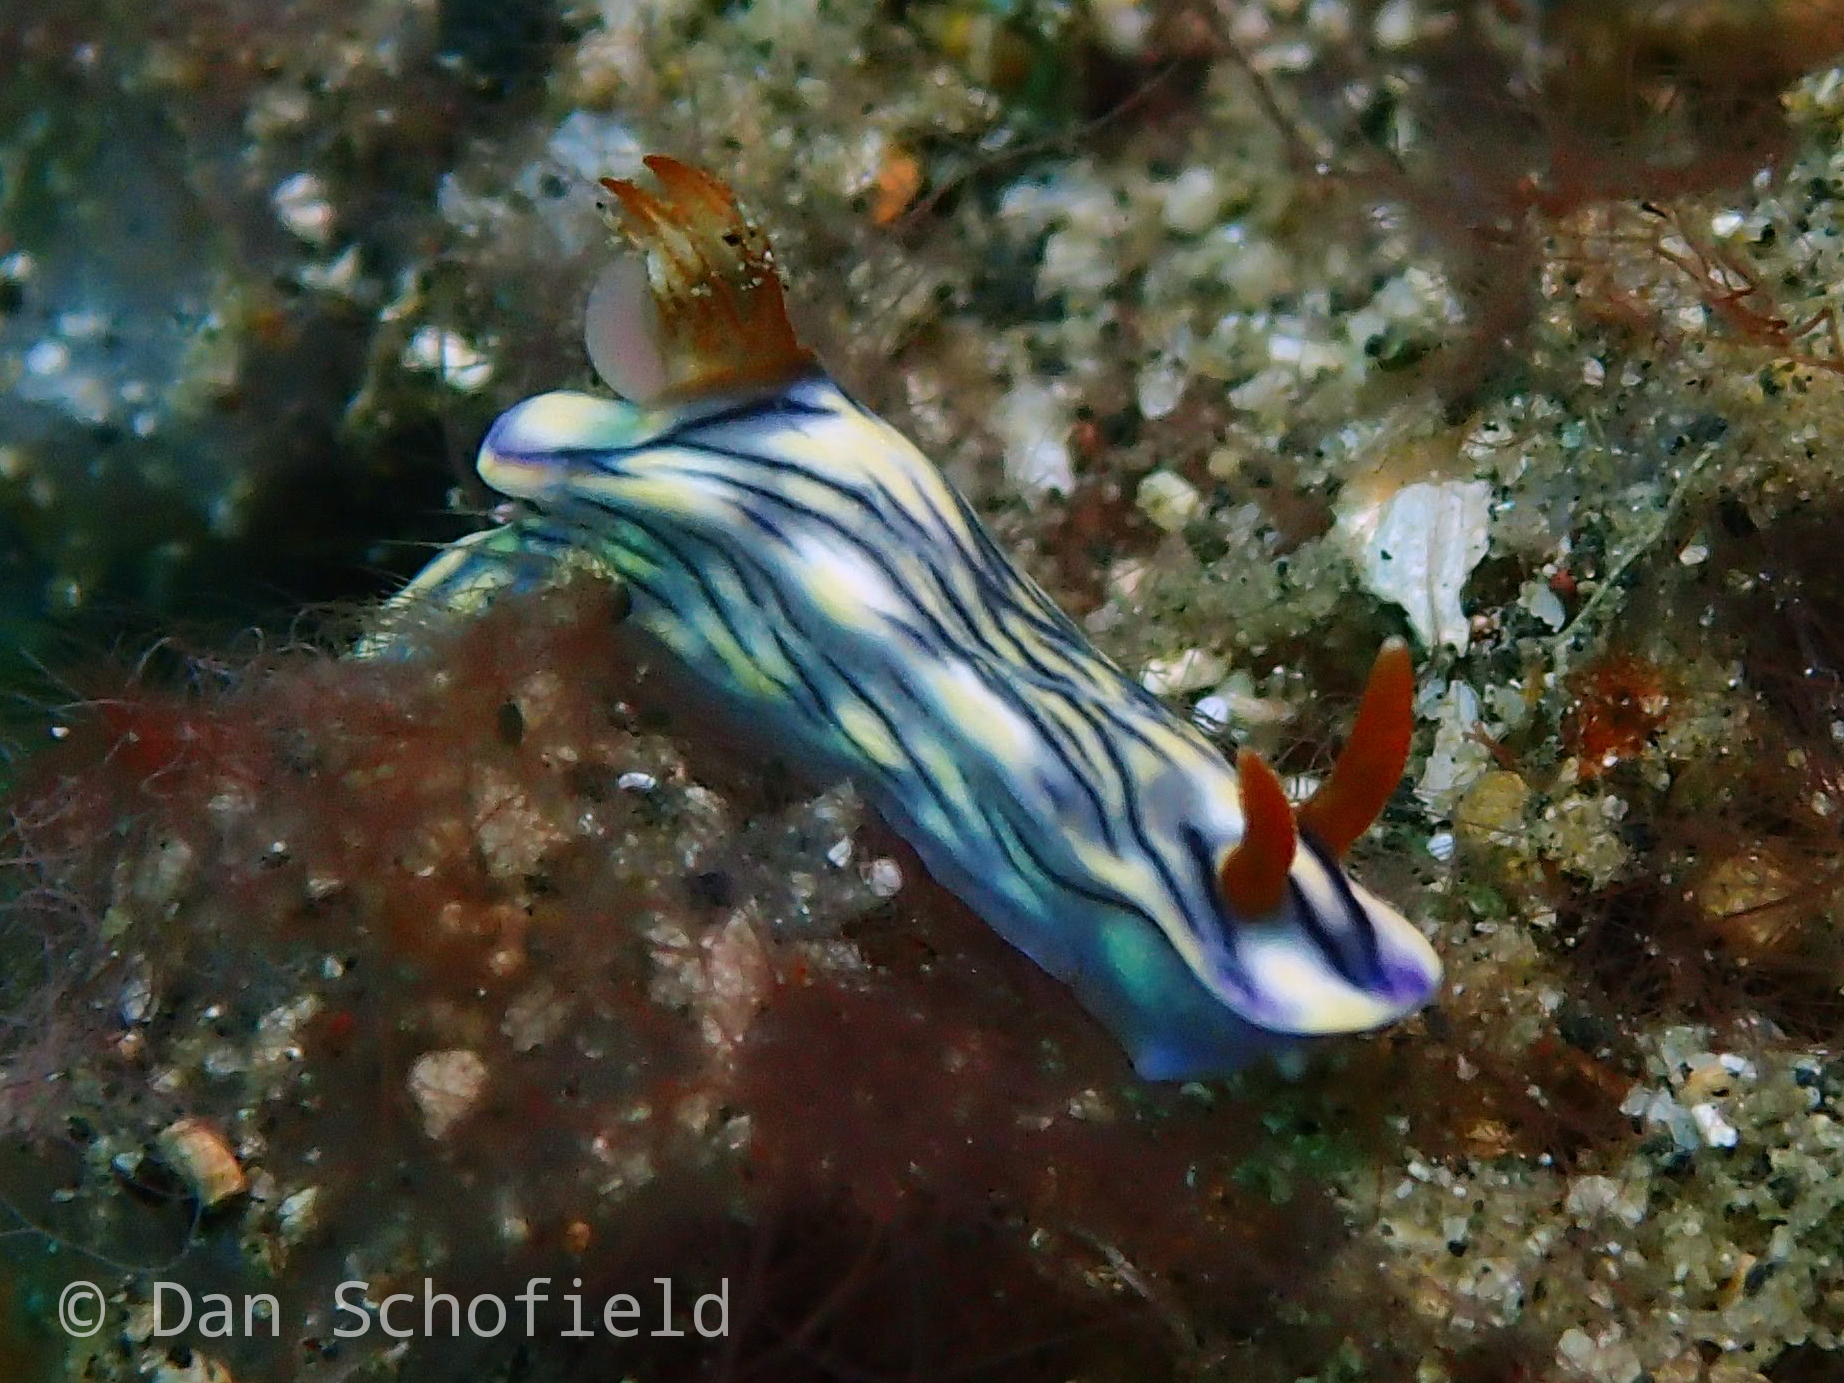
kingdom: Animalia
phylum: Mollusca
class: Gastropoda
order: Nudibranchia
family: Chromodorididae
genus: Hypselodoris
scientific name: Hypselodoris zephyra
